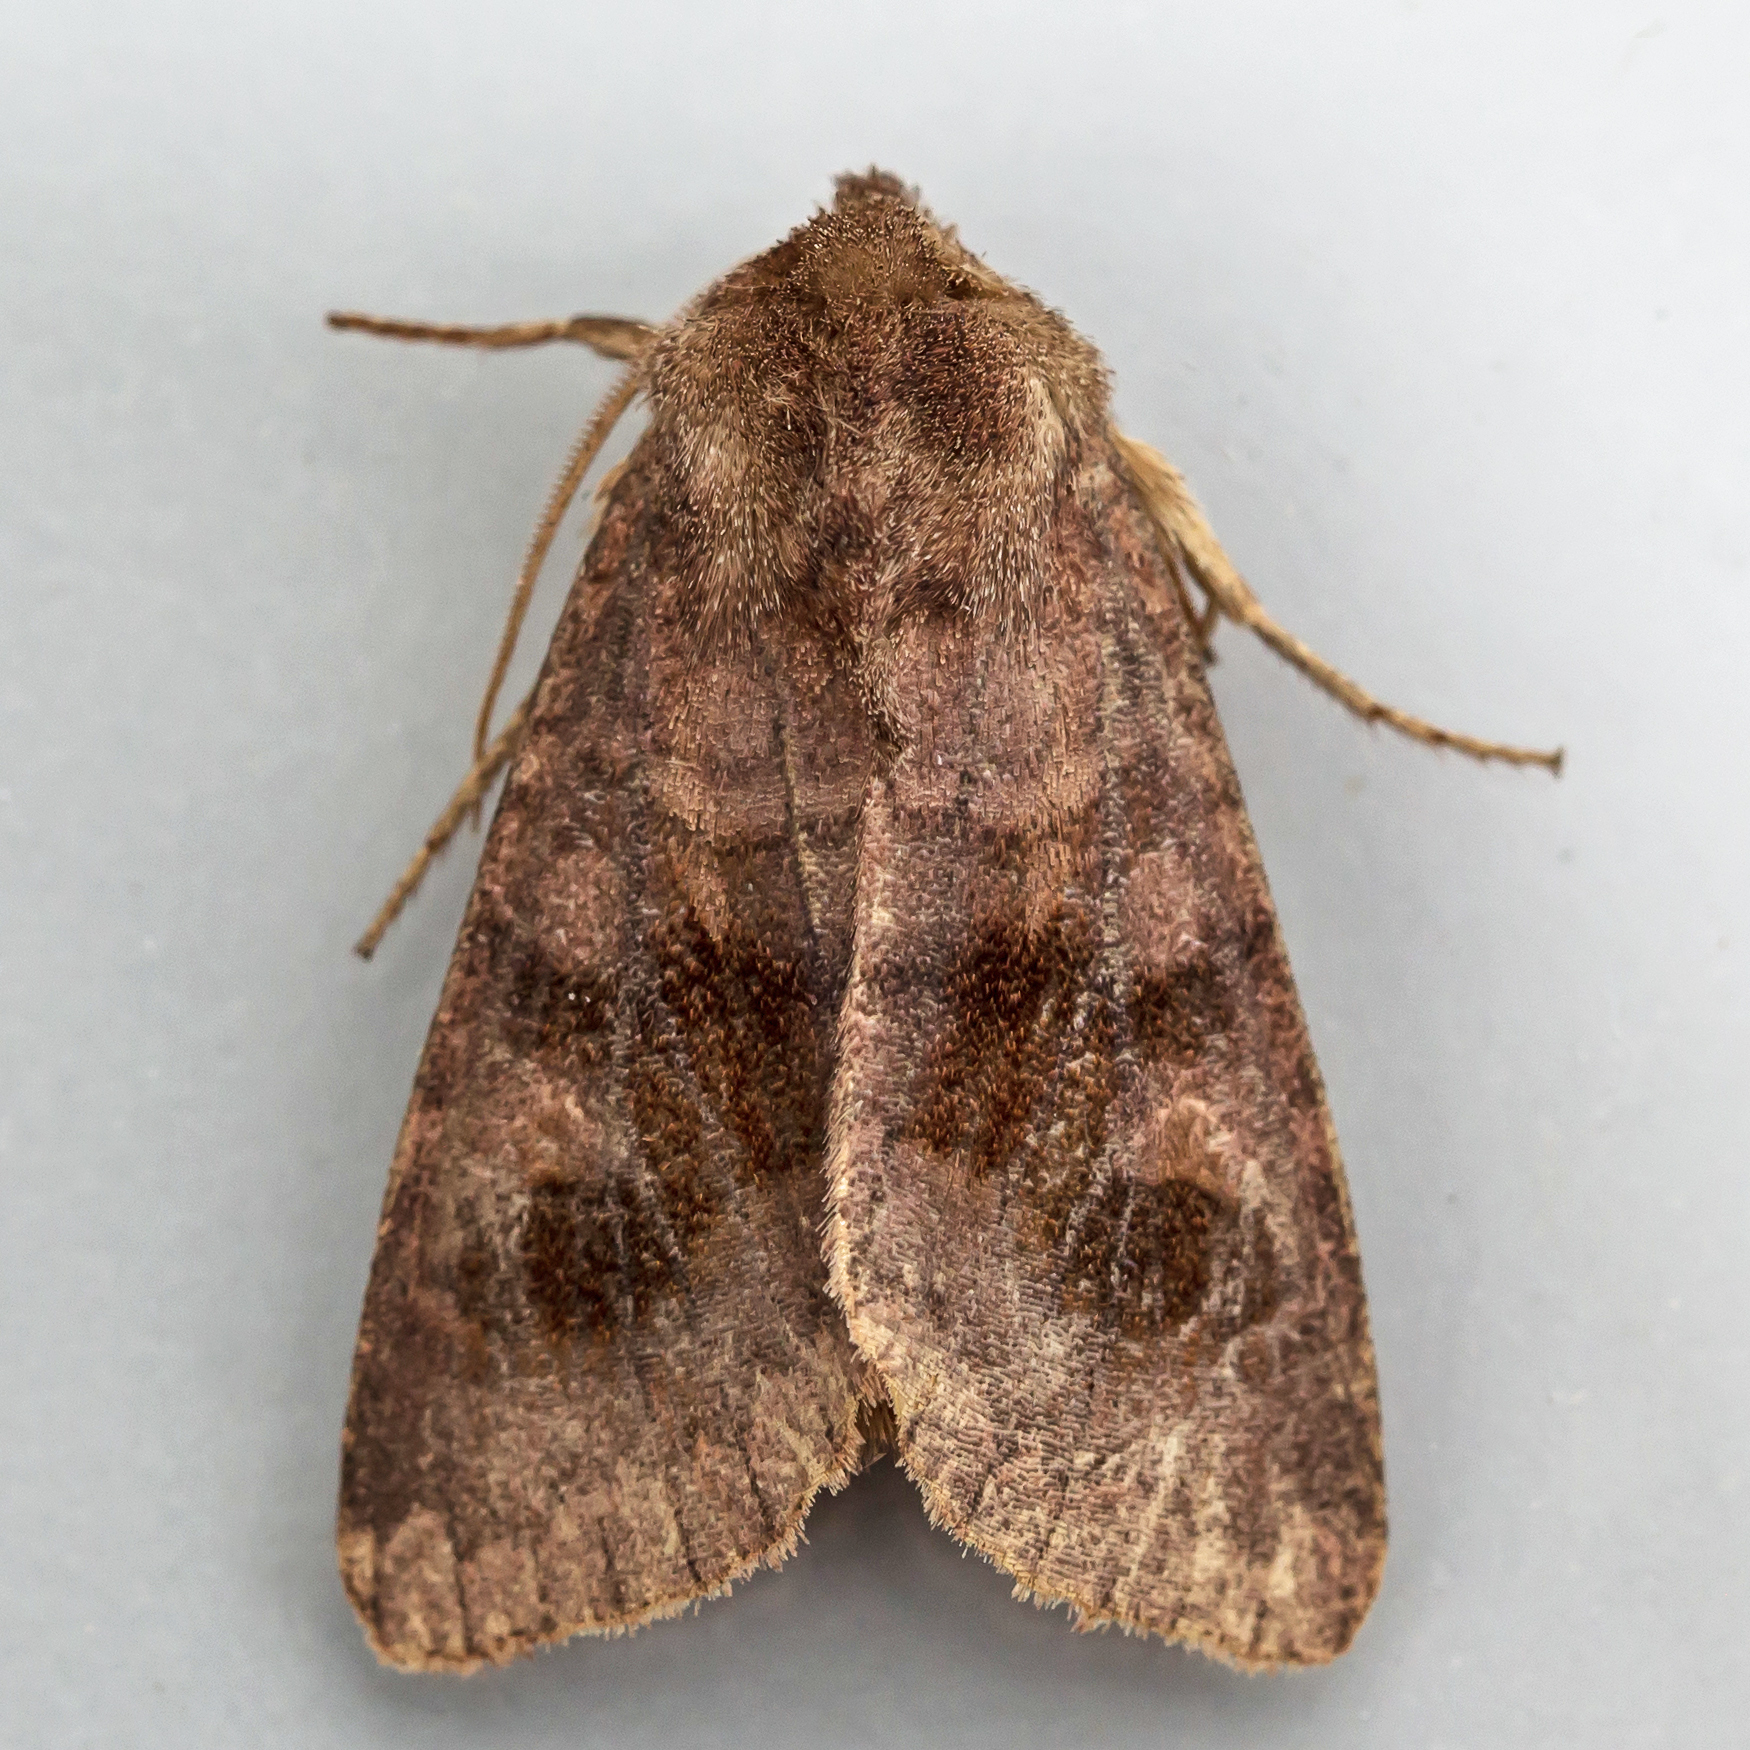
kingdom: Animalia
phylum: Arthropoda
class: Insecta
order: Lepidoptera
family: Noctuidae
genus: Nephelodes
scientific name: Nephelodes minians
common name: Bronzed cutworm
